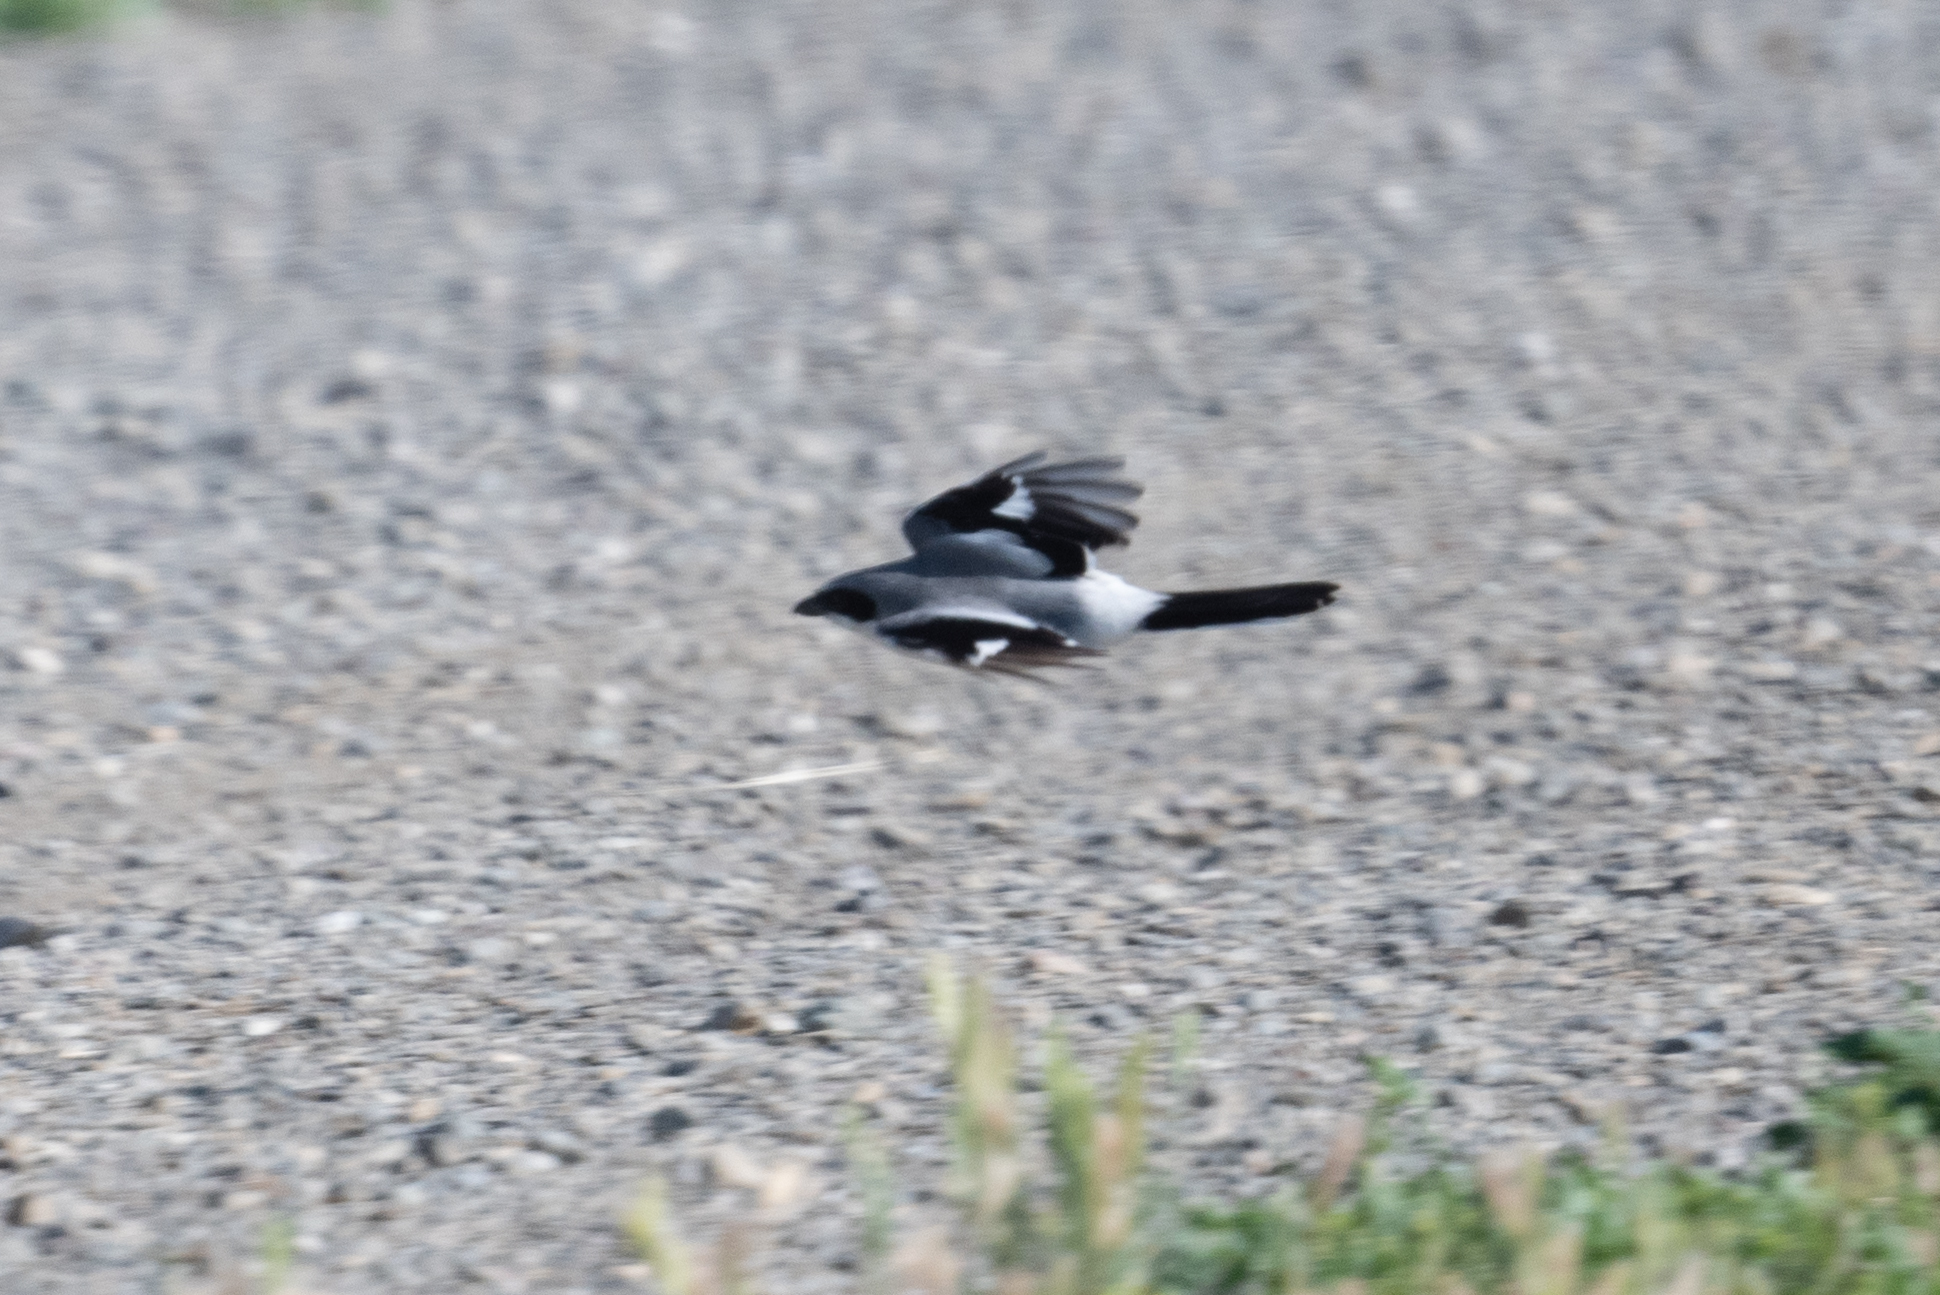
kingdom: Animalia
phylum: Chordata
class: Aves
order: Passeriformes
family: Laniidae
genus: Lanius
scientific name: Lanius ludovicianus
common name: Loggerhead shrike
